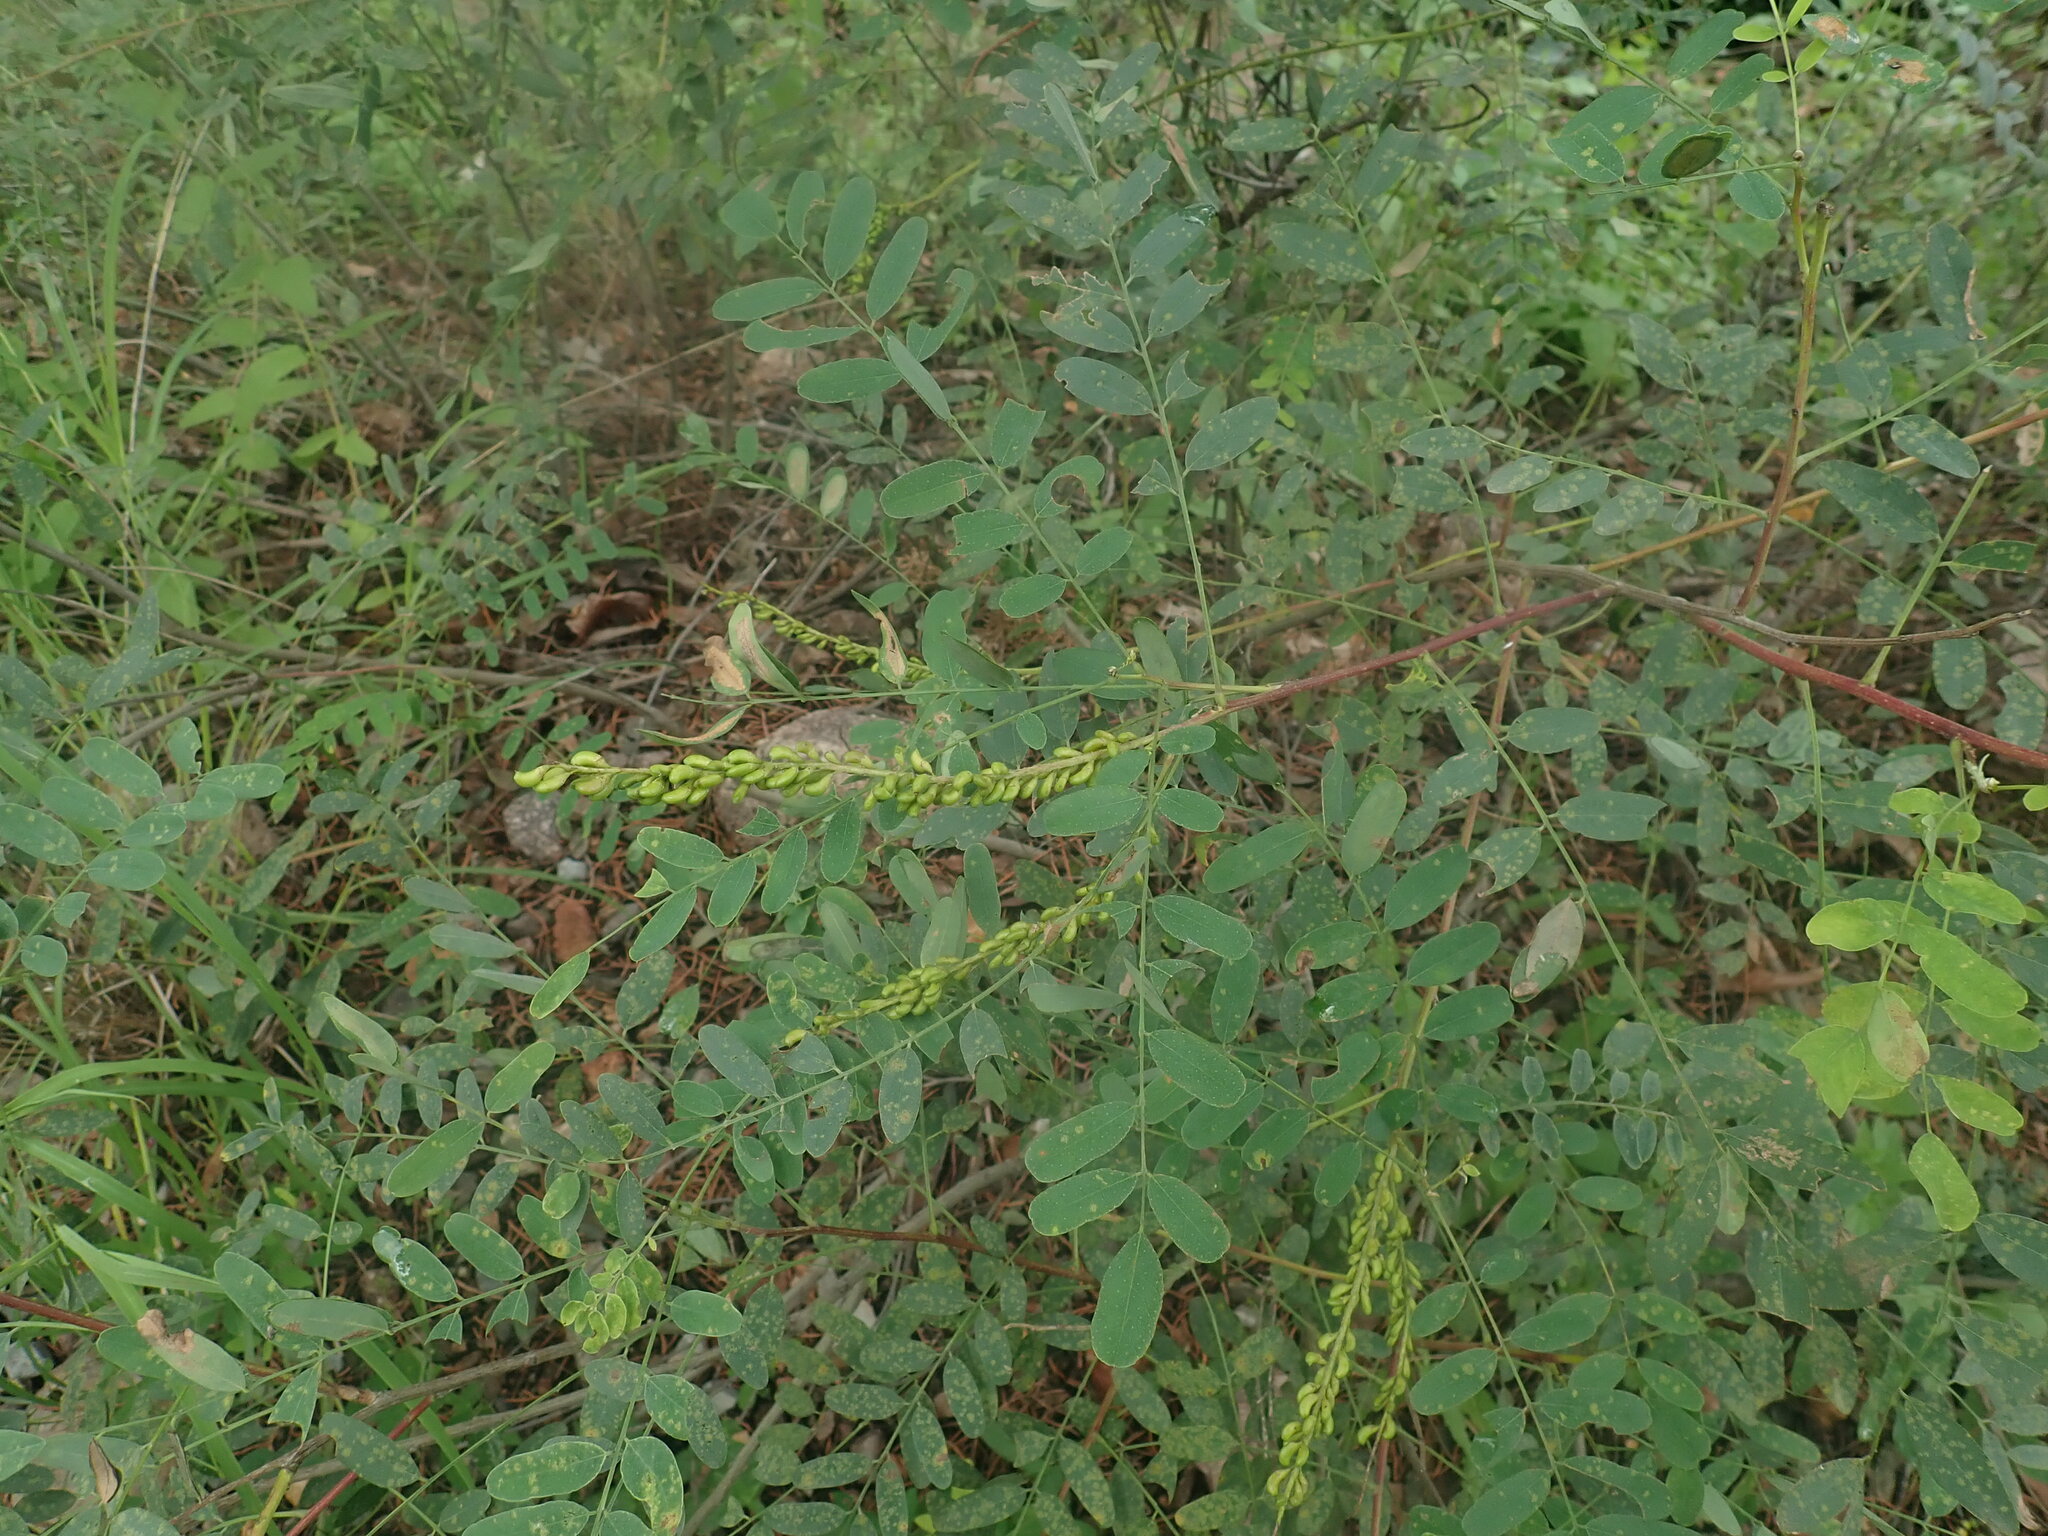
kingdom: Plantae
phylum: Tracheophyta
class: Magnoliopsida
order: Fabales
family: Fabaceae
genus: Amorpha
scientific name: Amorpha fruticosa
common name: False indigo
